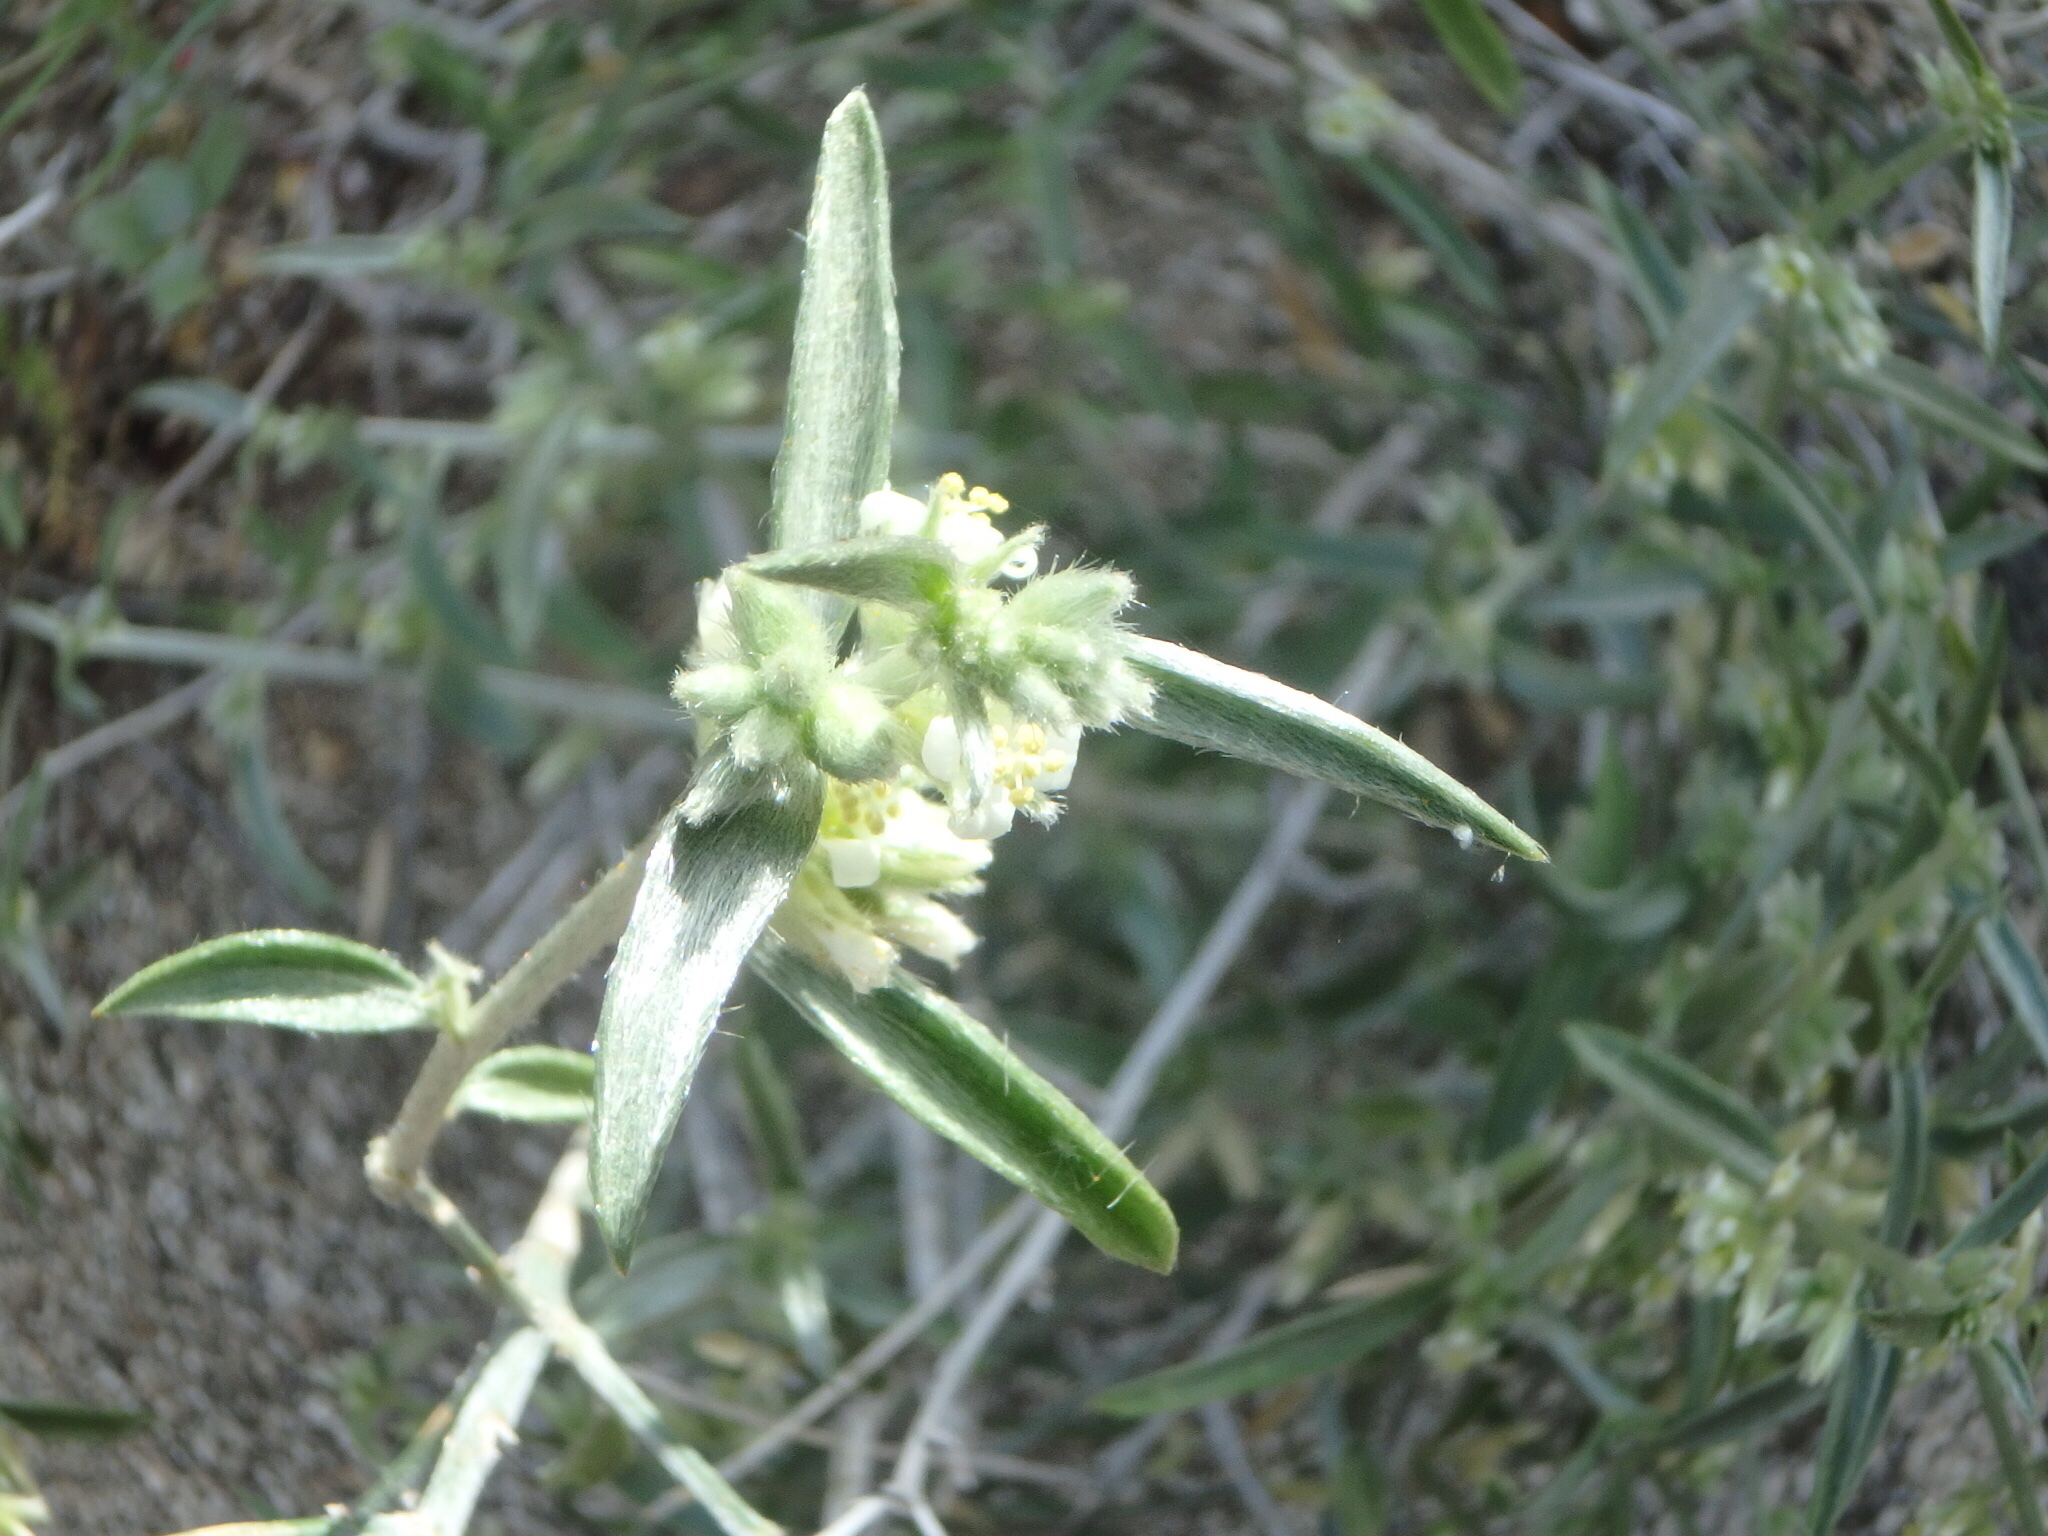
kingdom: Plantae
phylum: Tracheophyta
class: Magnoliopsida
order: Malpighiales
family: Euphorbiaceae
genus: Ditaxis
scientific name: Ditaxis lanceolata
